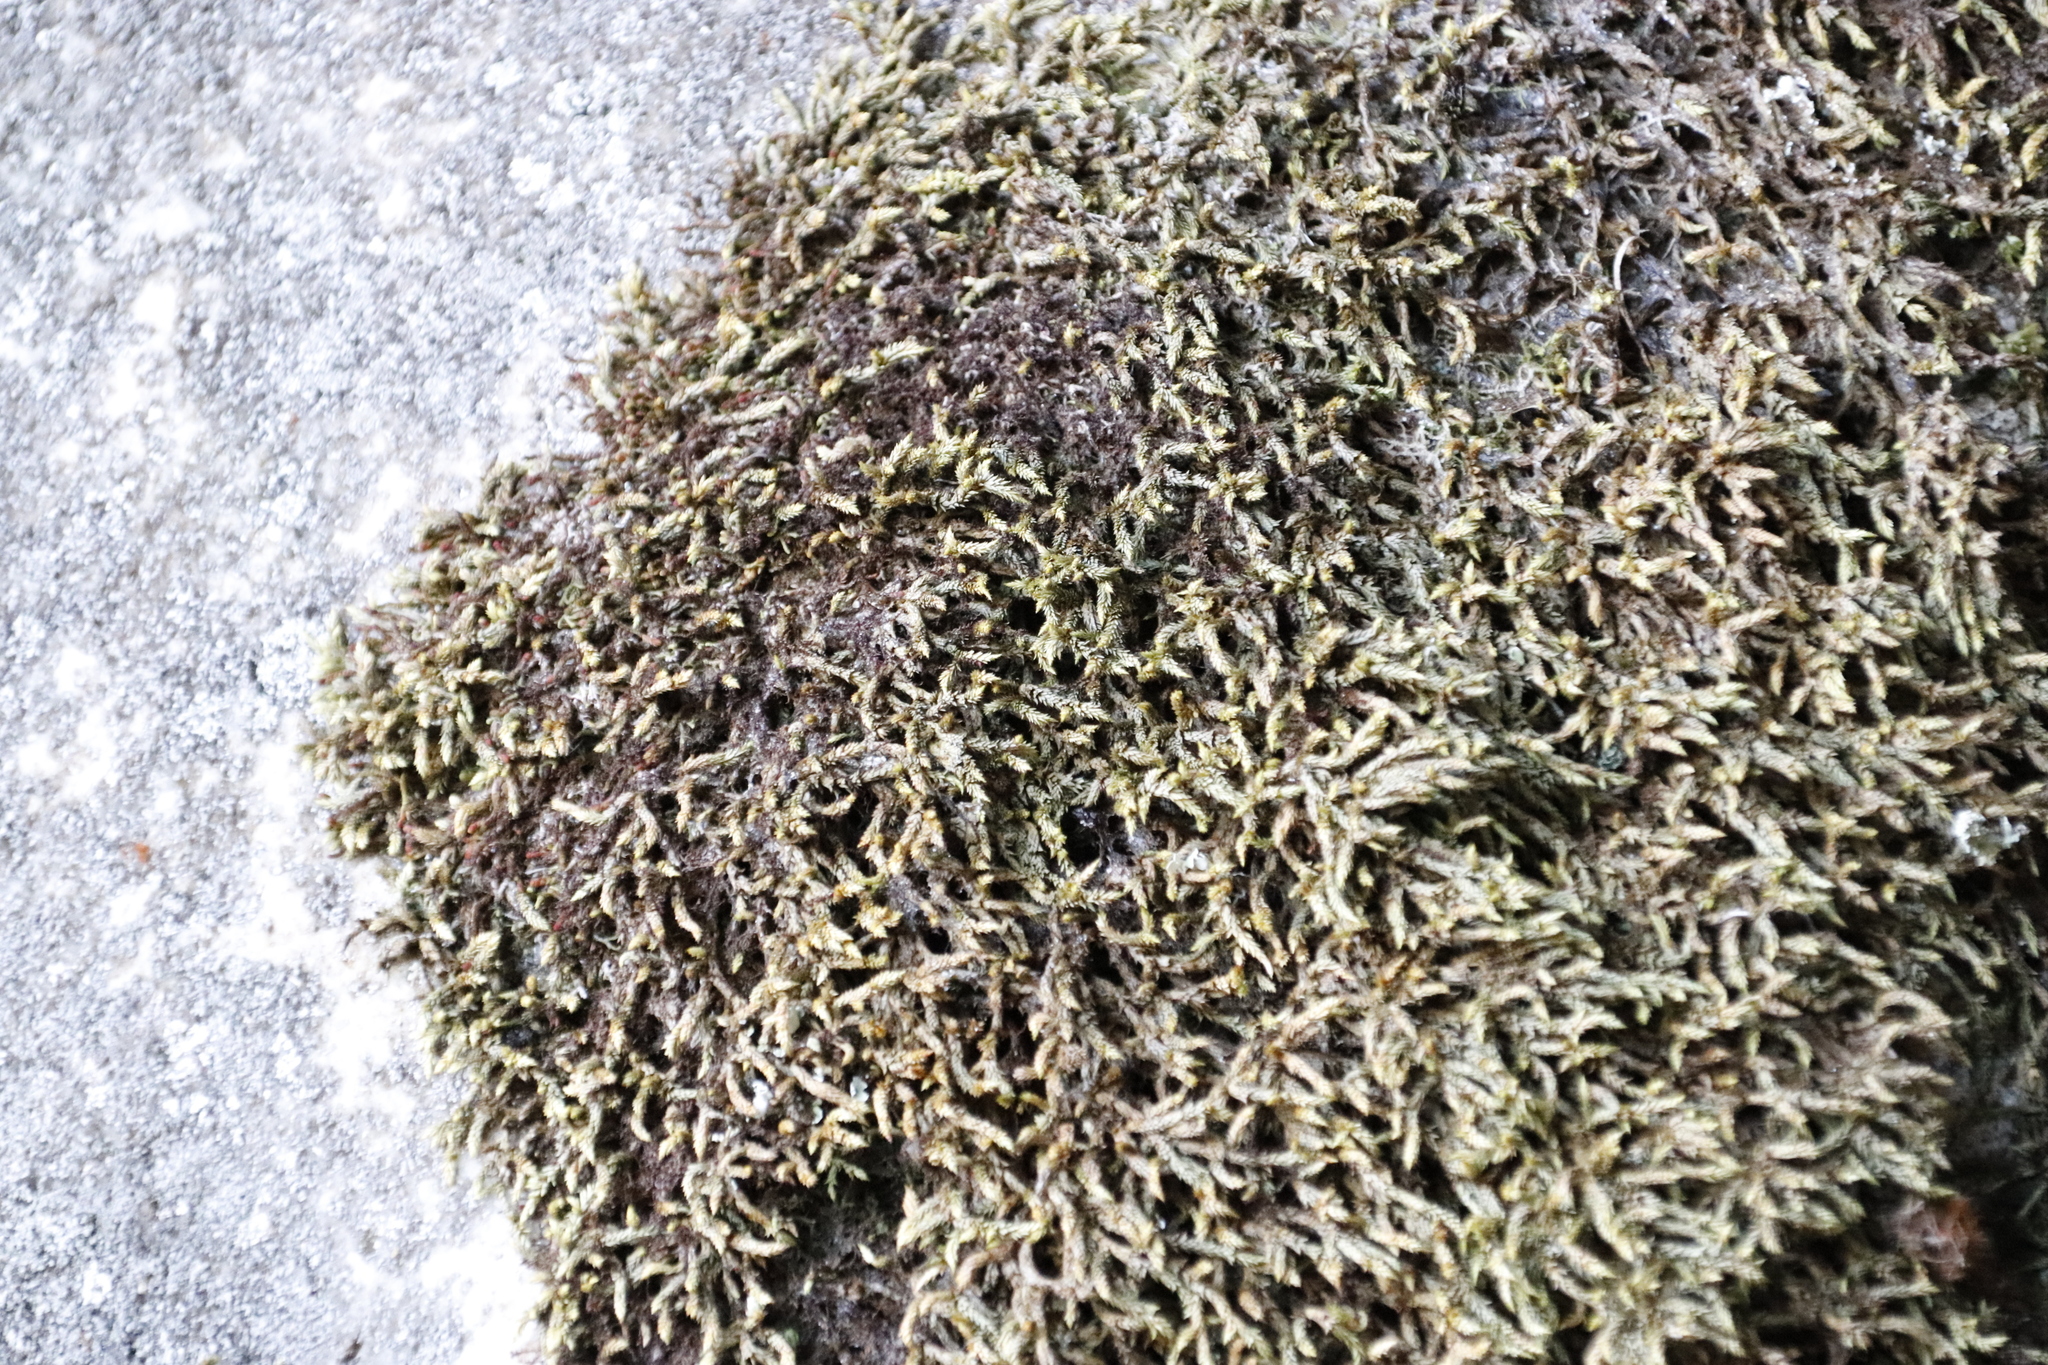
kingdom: Plantae
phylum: Bryophyta
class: Bryopsida
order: Hedwigiales
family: Hedwigiaceae
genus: Rhacocarpus
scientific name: Rhacocarpus purpurascens
